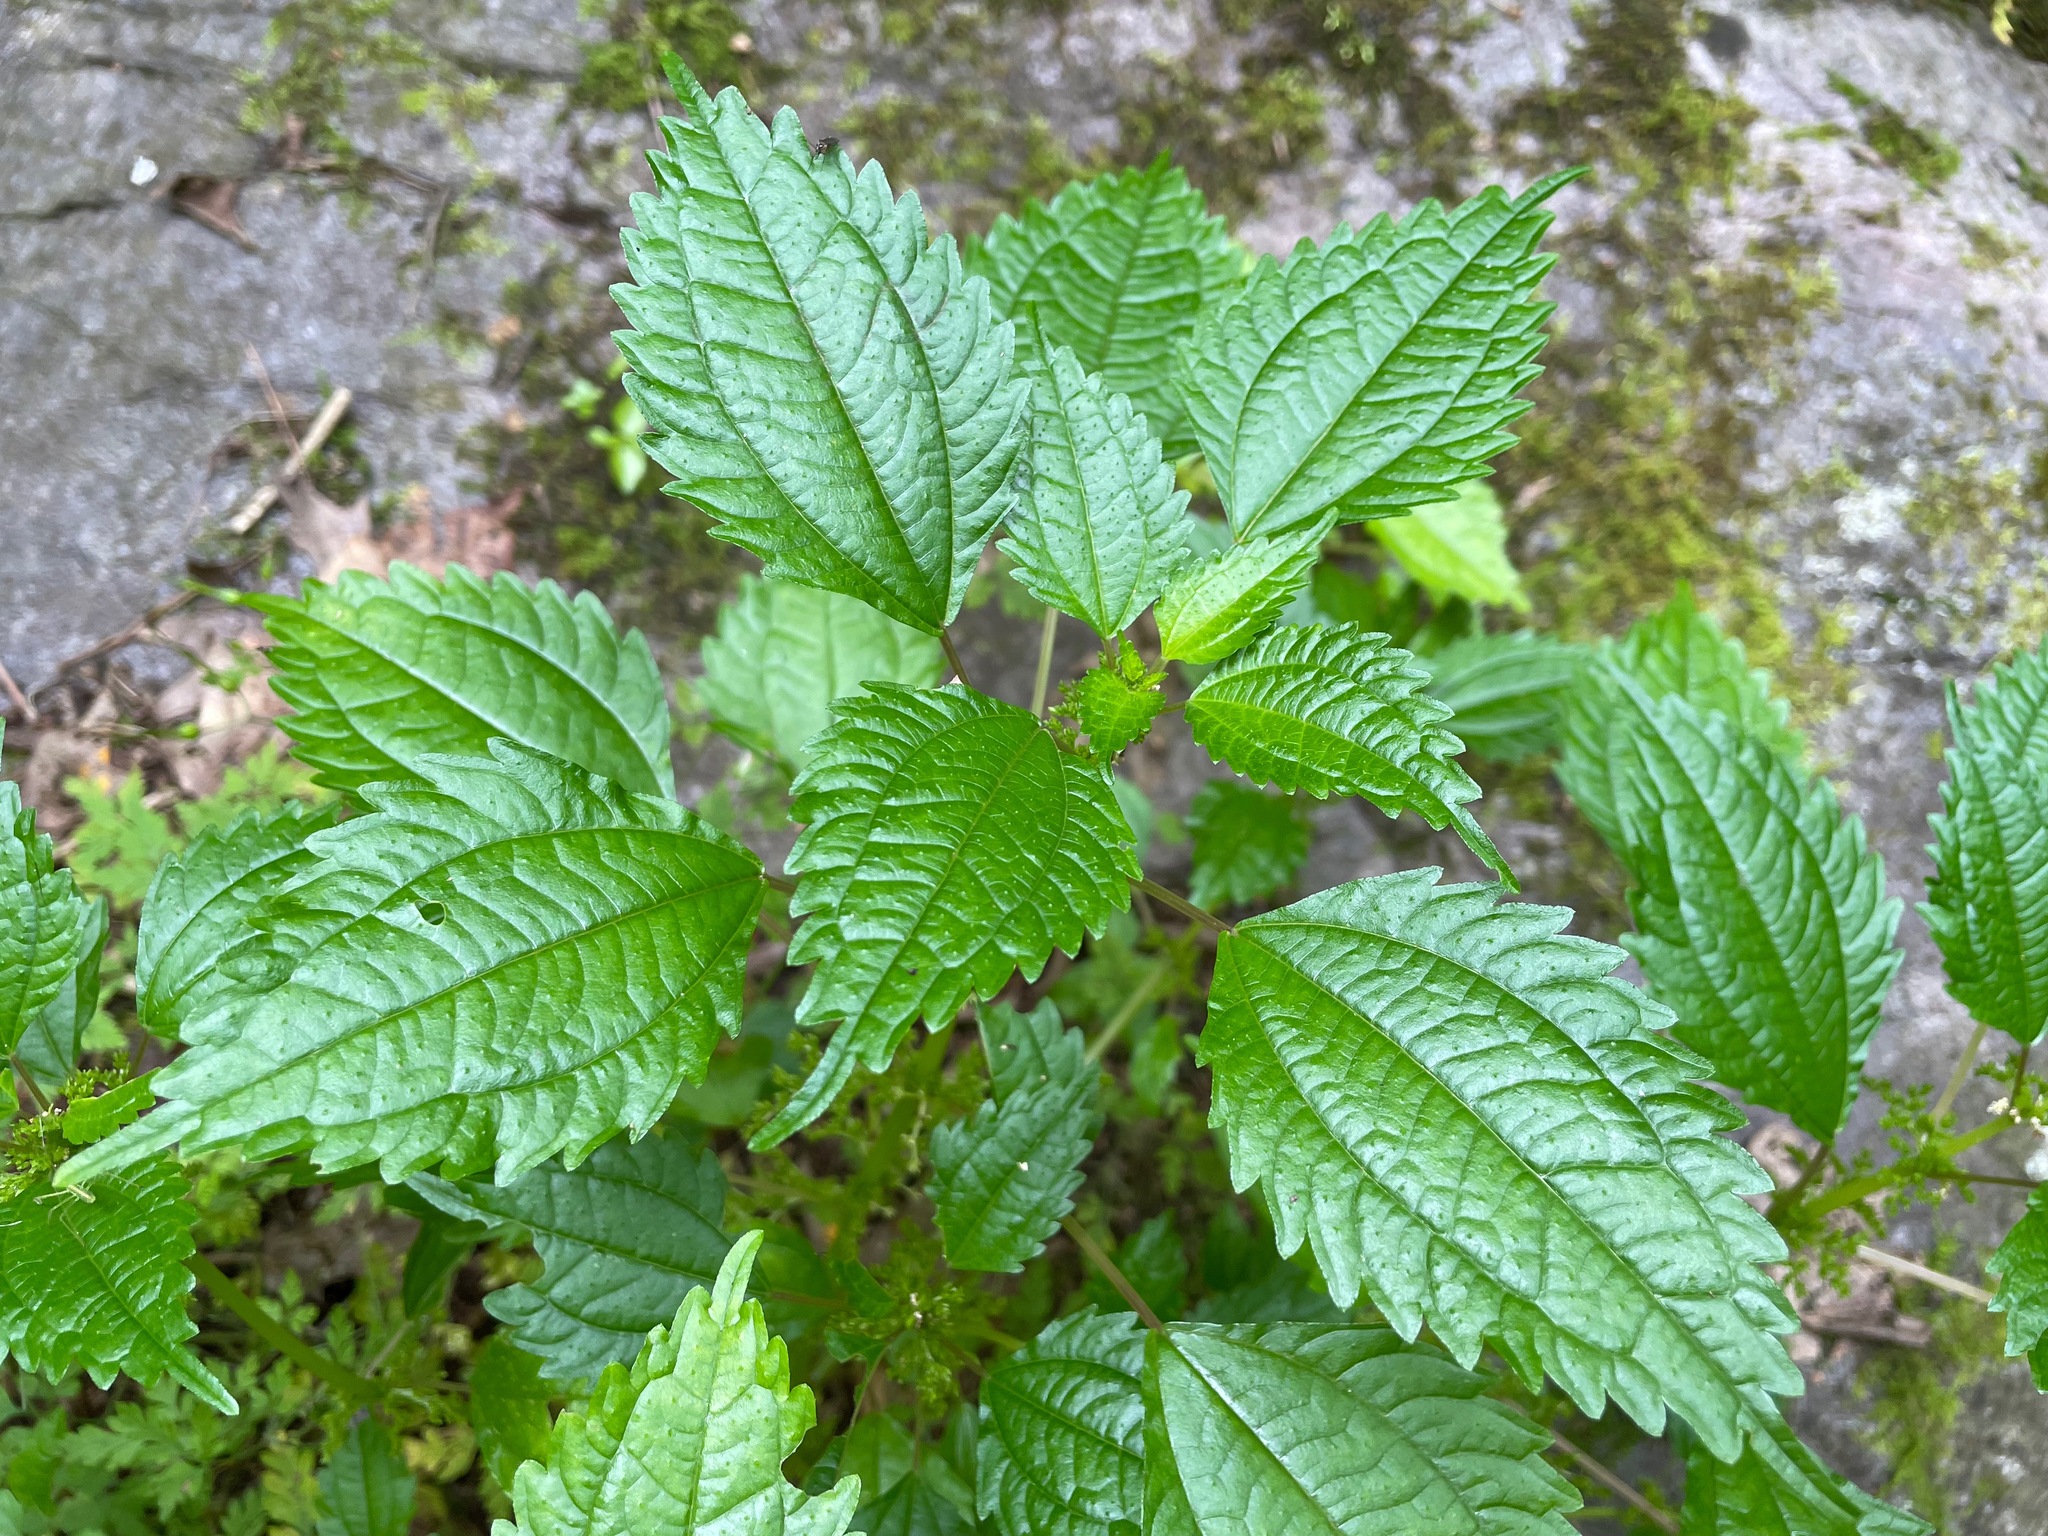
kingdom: Plantae
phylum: Tracheophyta
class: Magnoliopsida
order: Rosales
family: Urticaceae
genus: Pilea
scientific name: Pilea pumila
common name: Clearweed
